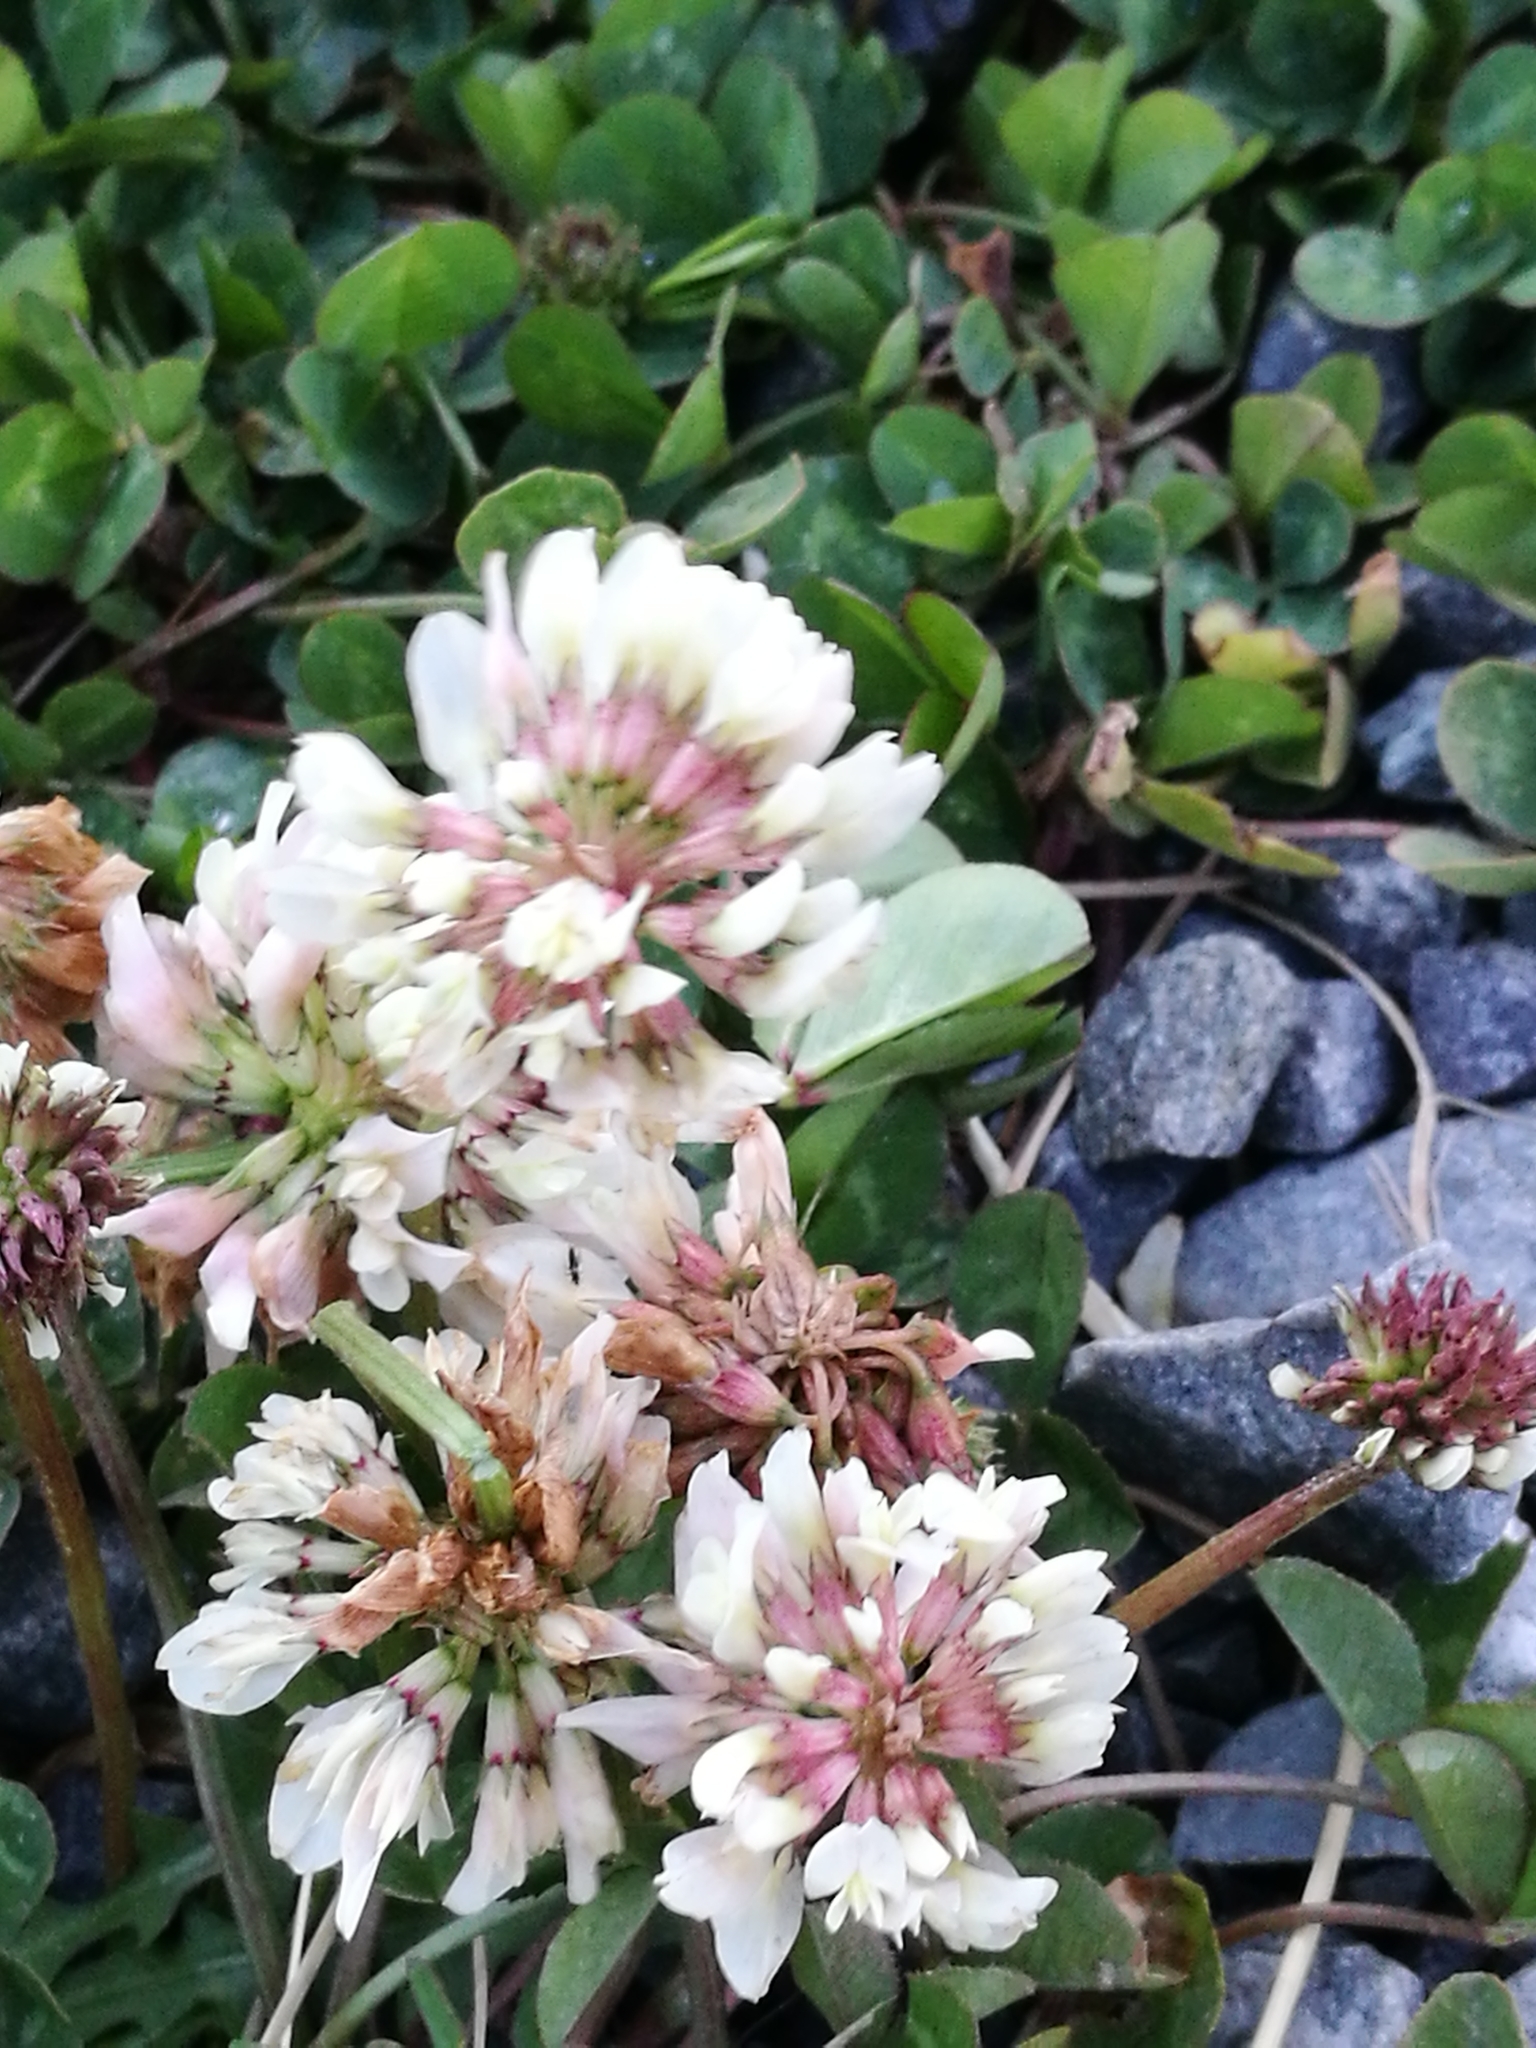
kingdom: Plantae
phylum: Tracheophyta
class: Magnoliopsida
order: Fabales
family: Fabaceae
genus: Trifolium
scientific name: Trifolium repens
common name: White clover
